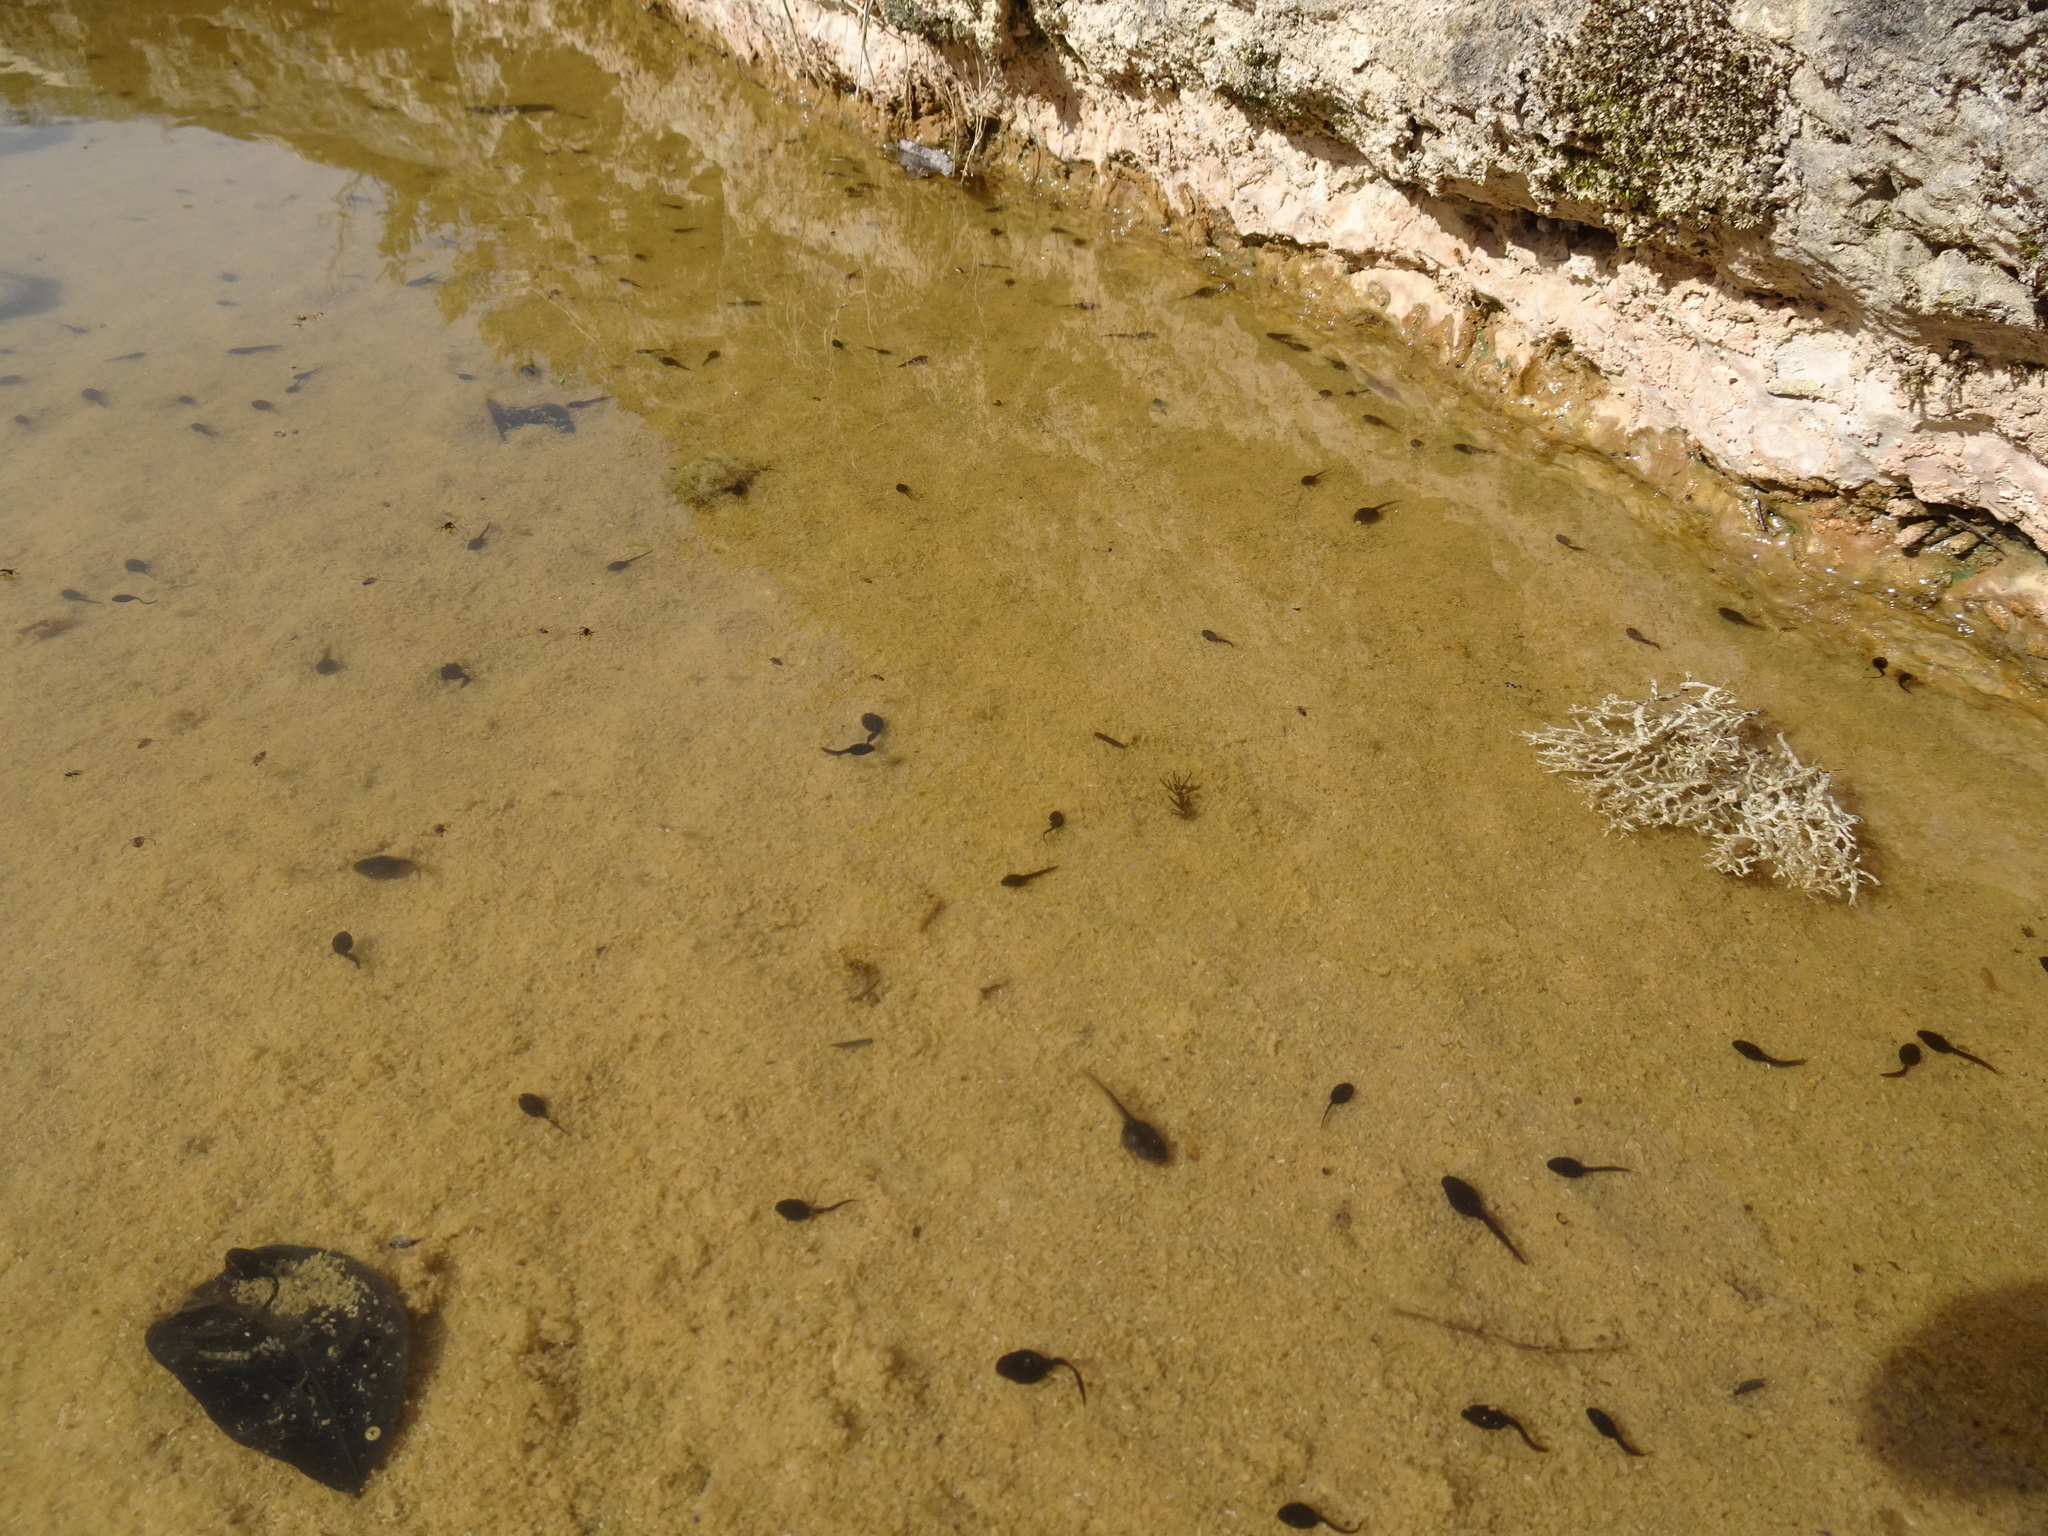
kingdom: Animalia
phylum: Chordata
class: Amphibia
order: Anura
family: Bufonidae
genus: Epidalea
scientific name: Epidalea calamita
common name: Natterjack toad
